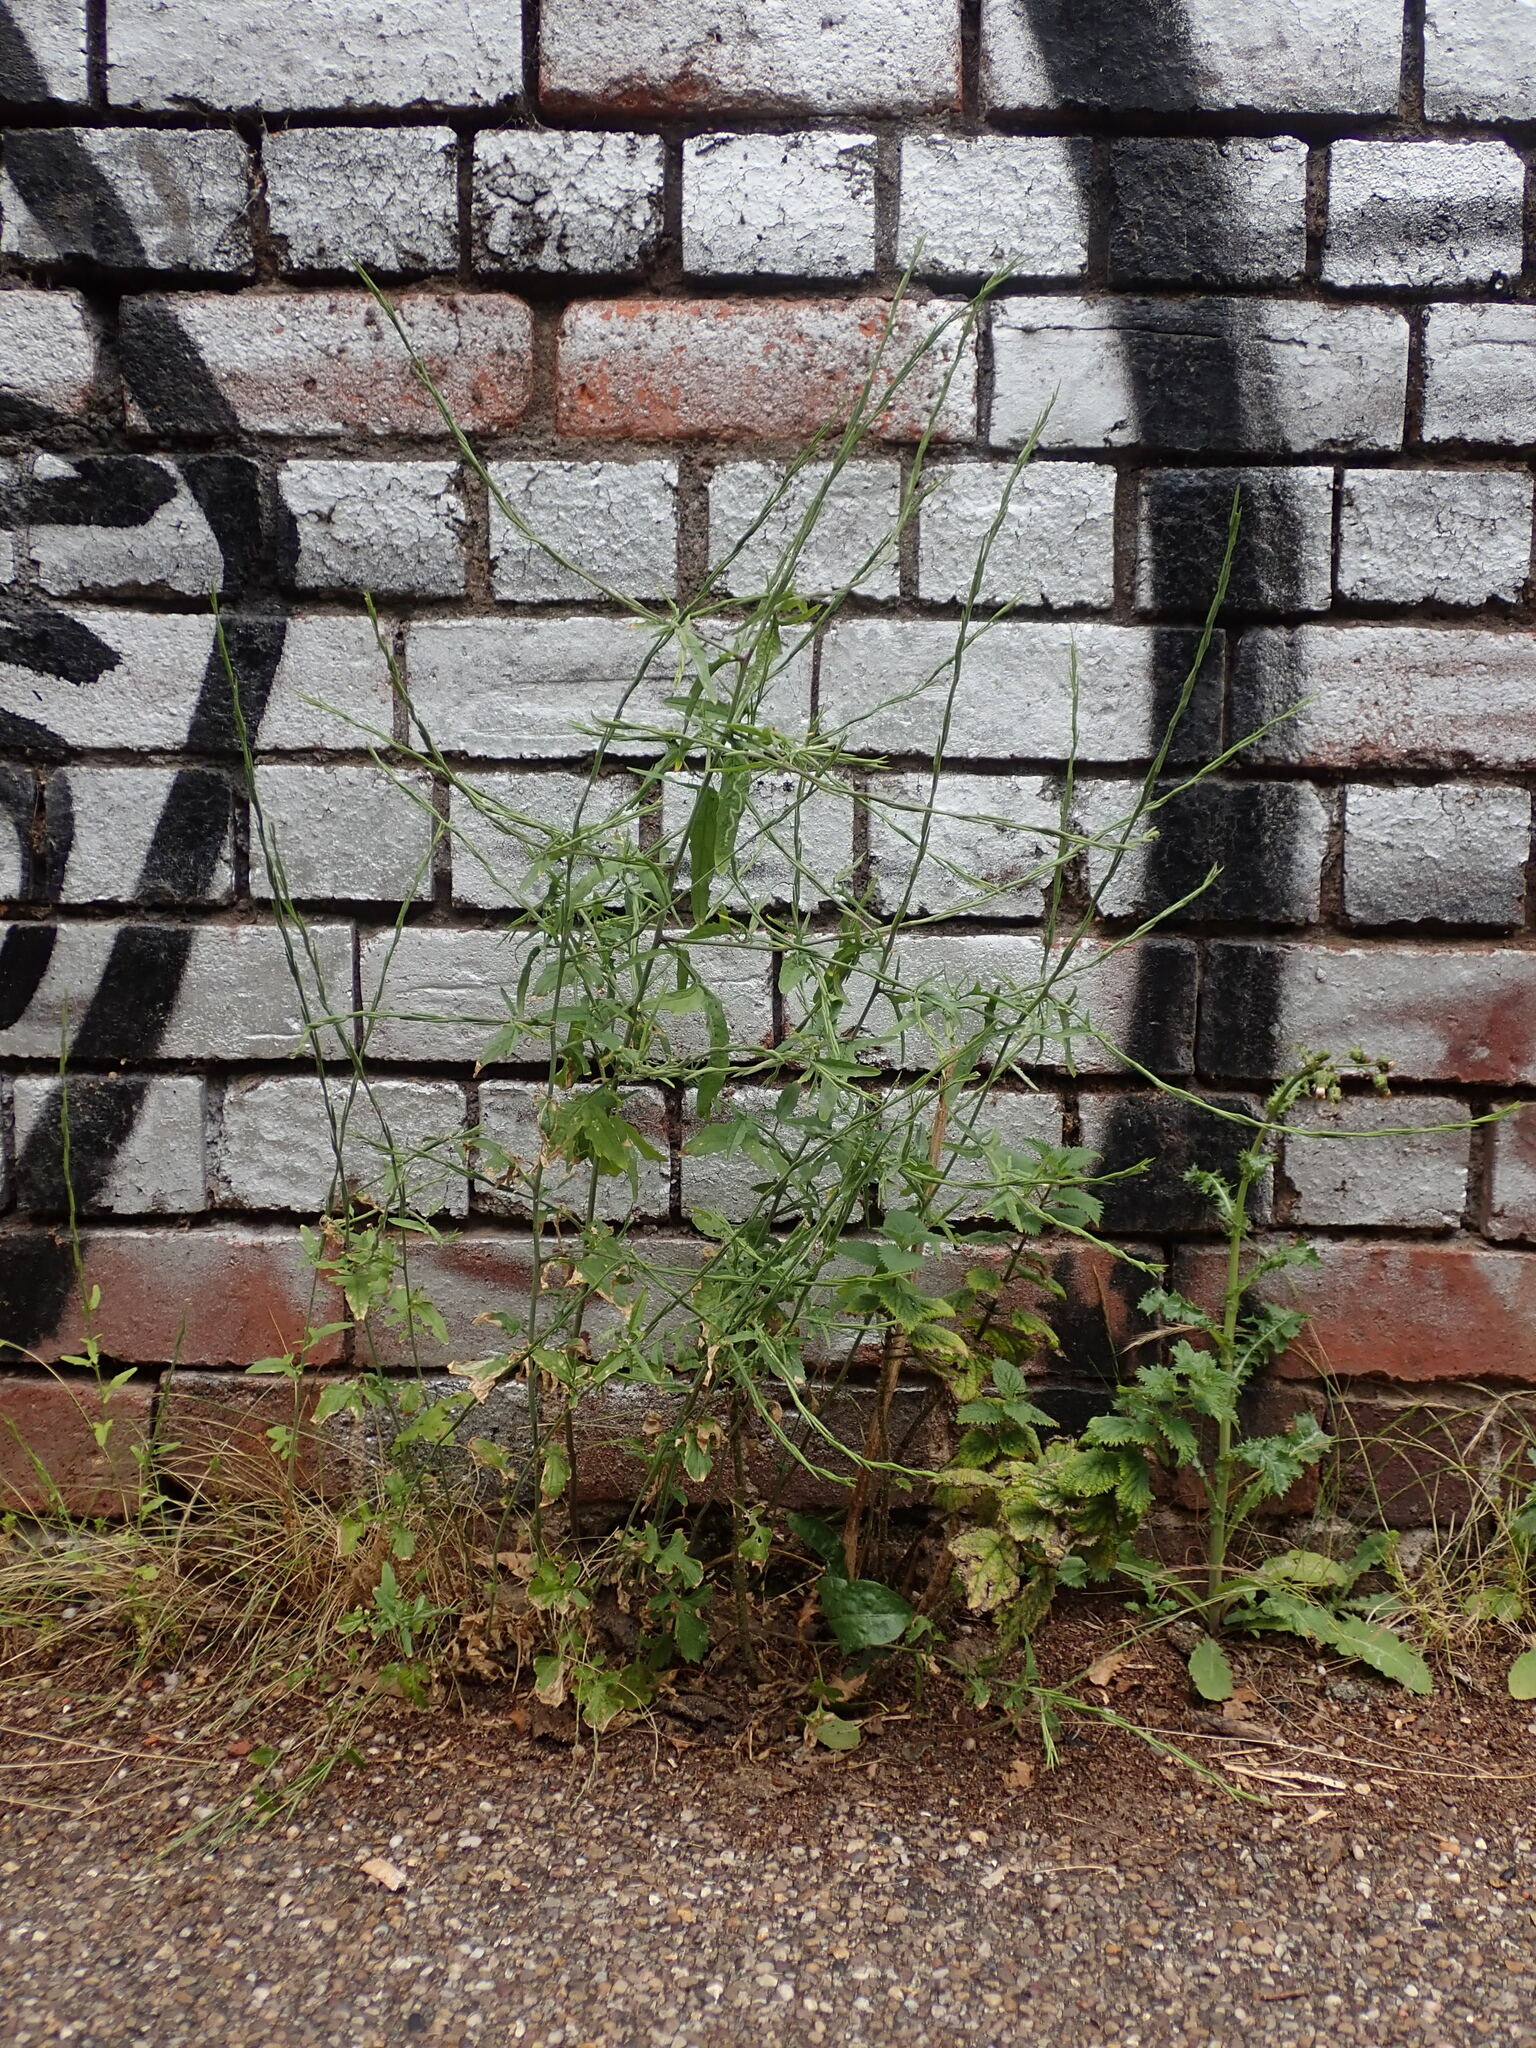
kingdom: Plantae
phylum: Tracheophyta
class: Magnoliopsida
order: Brassicales
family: Brassicaceae
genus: Sisymbrium
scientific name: Sisymbrium officinale
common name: Hedge mustard
